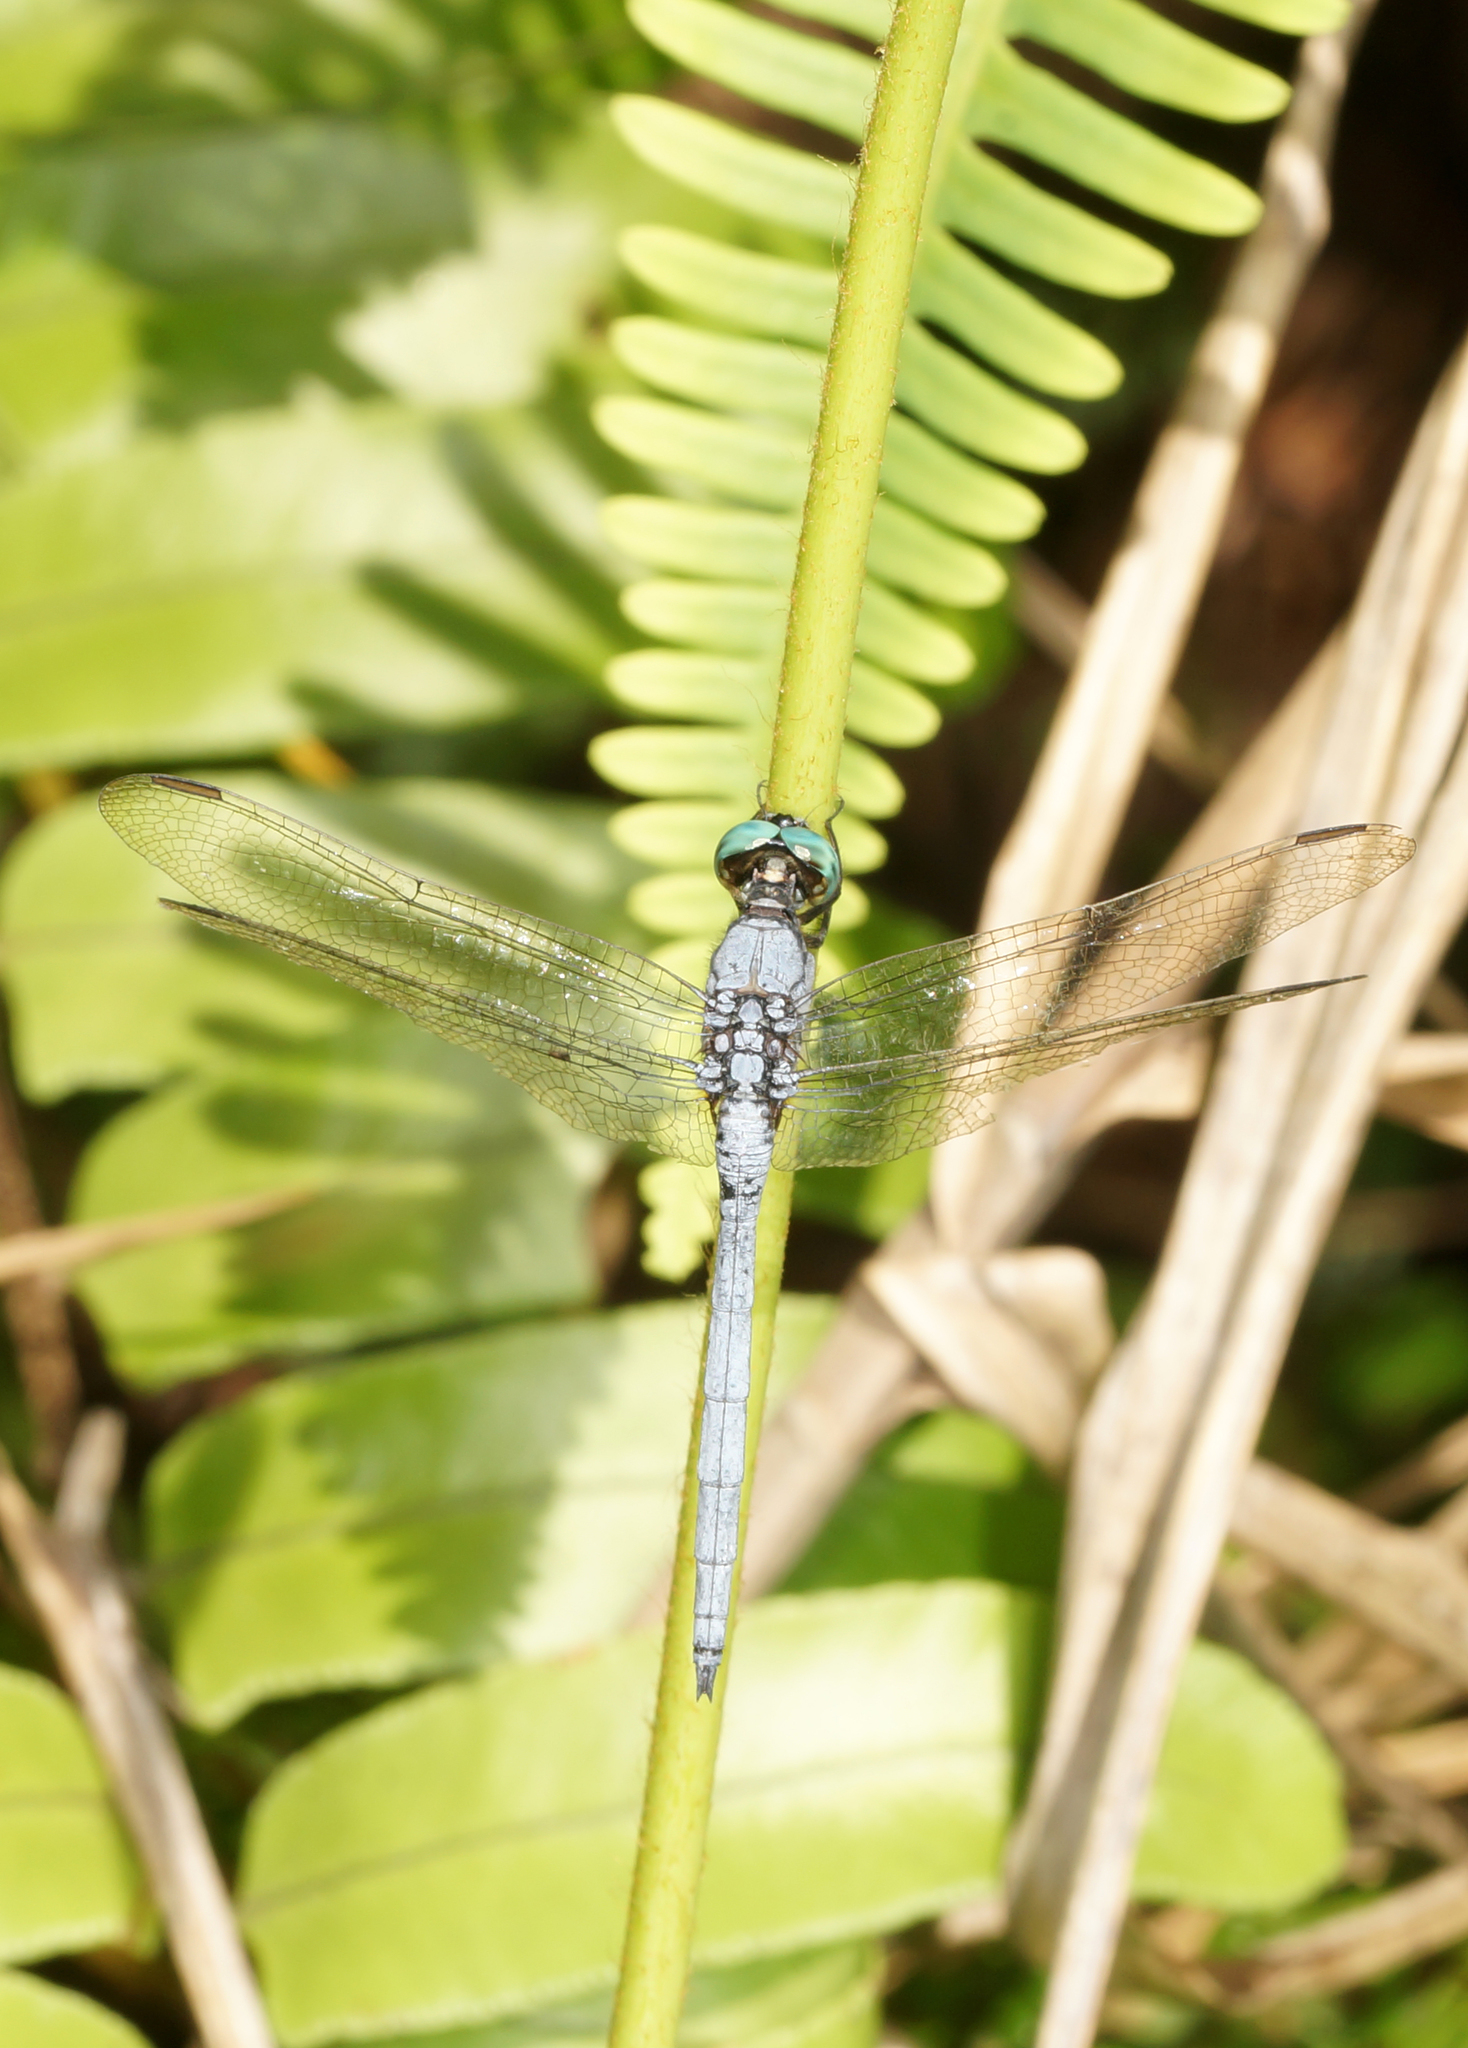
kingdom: Animalia
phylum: Arthropoda
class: Insecta
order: Odonata
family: Libellulidae
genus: Orthetrum
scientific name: Orthetrum luzonicum
